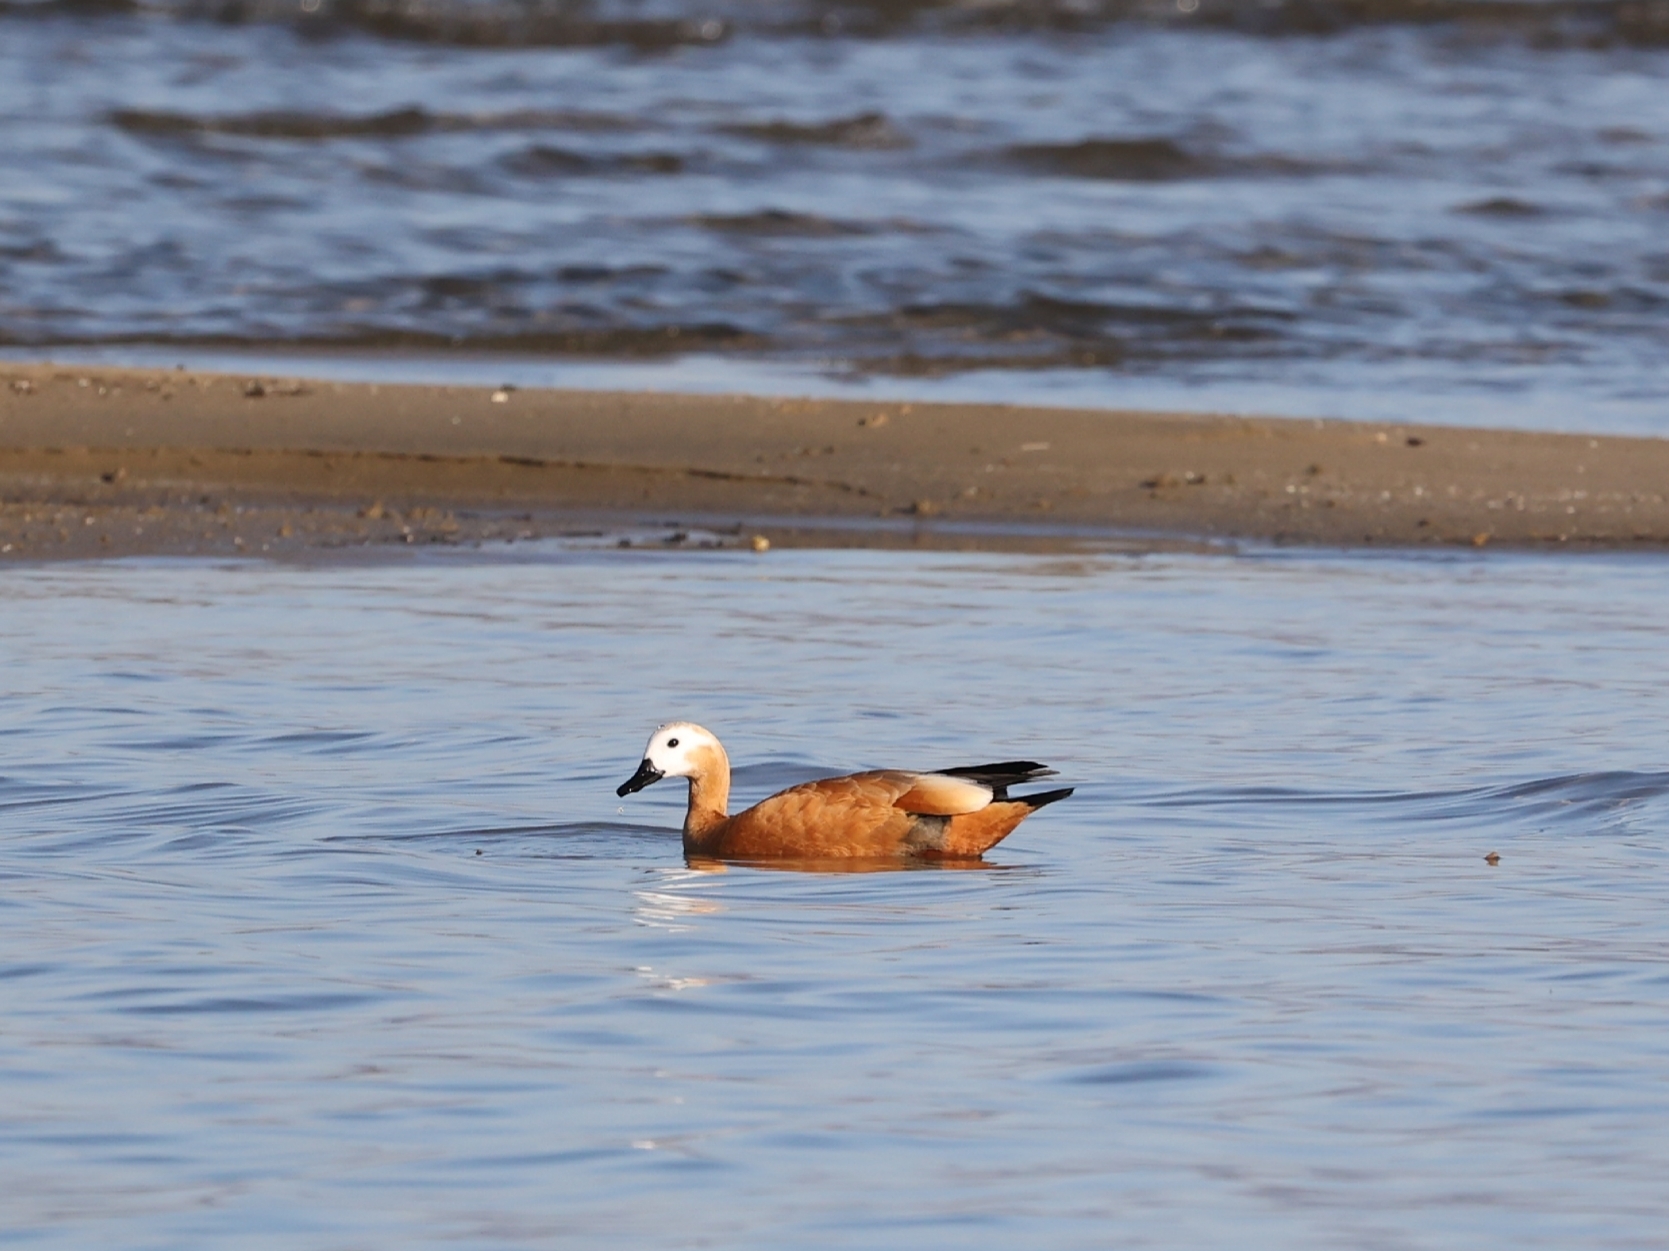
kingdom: Animalia
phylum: Chordata
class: Aves
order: Anseriformes
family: Anatidae
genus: Tadorna
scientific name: Tadorna ferruginea
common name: Ruddy shelduck
